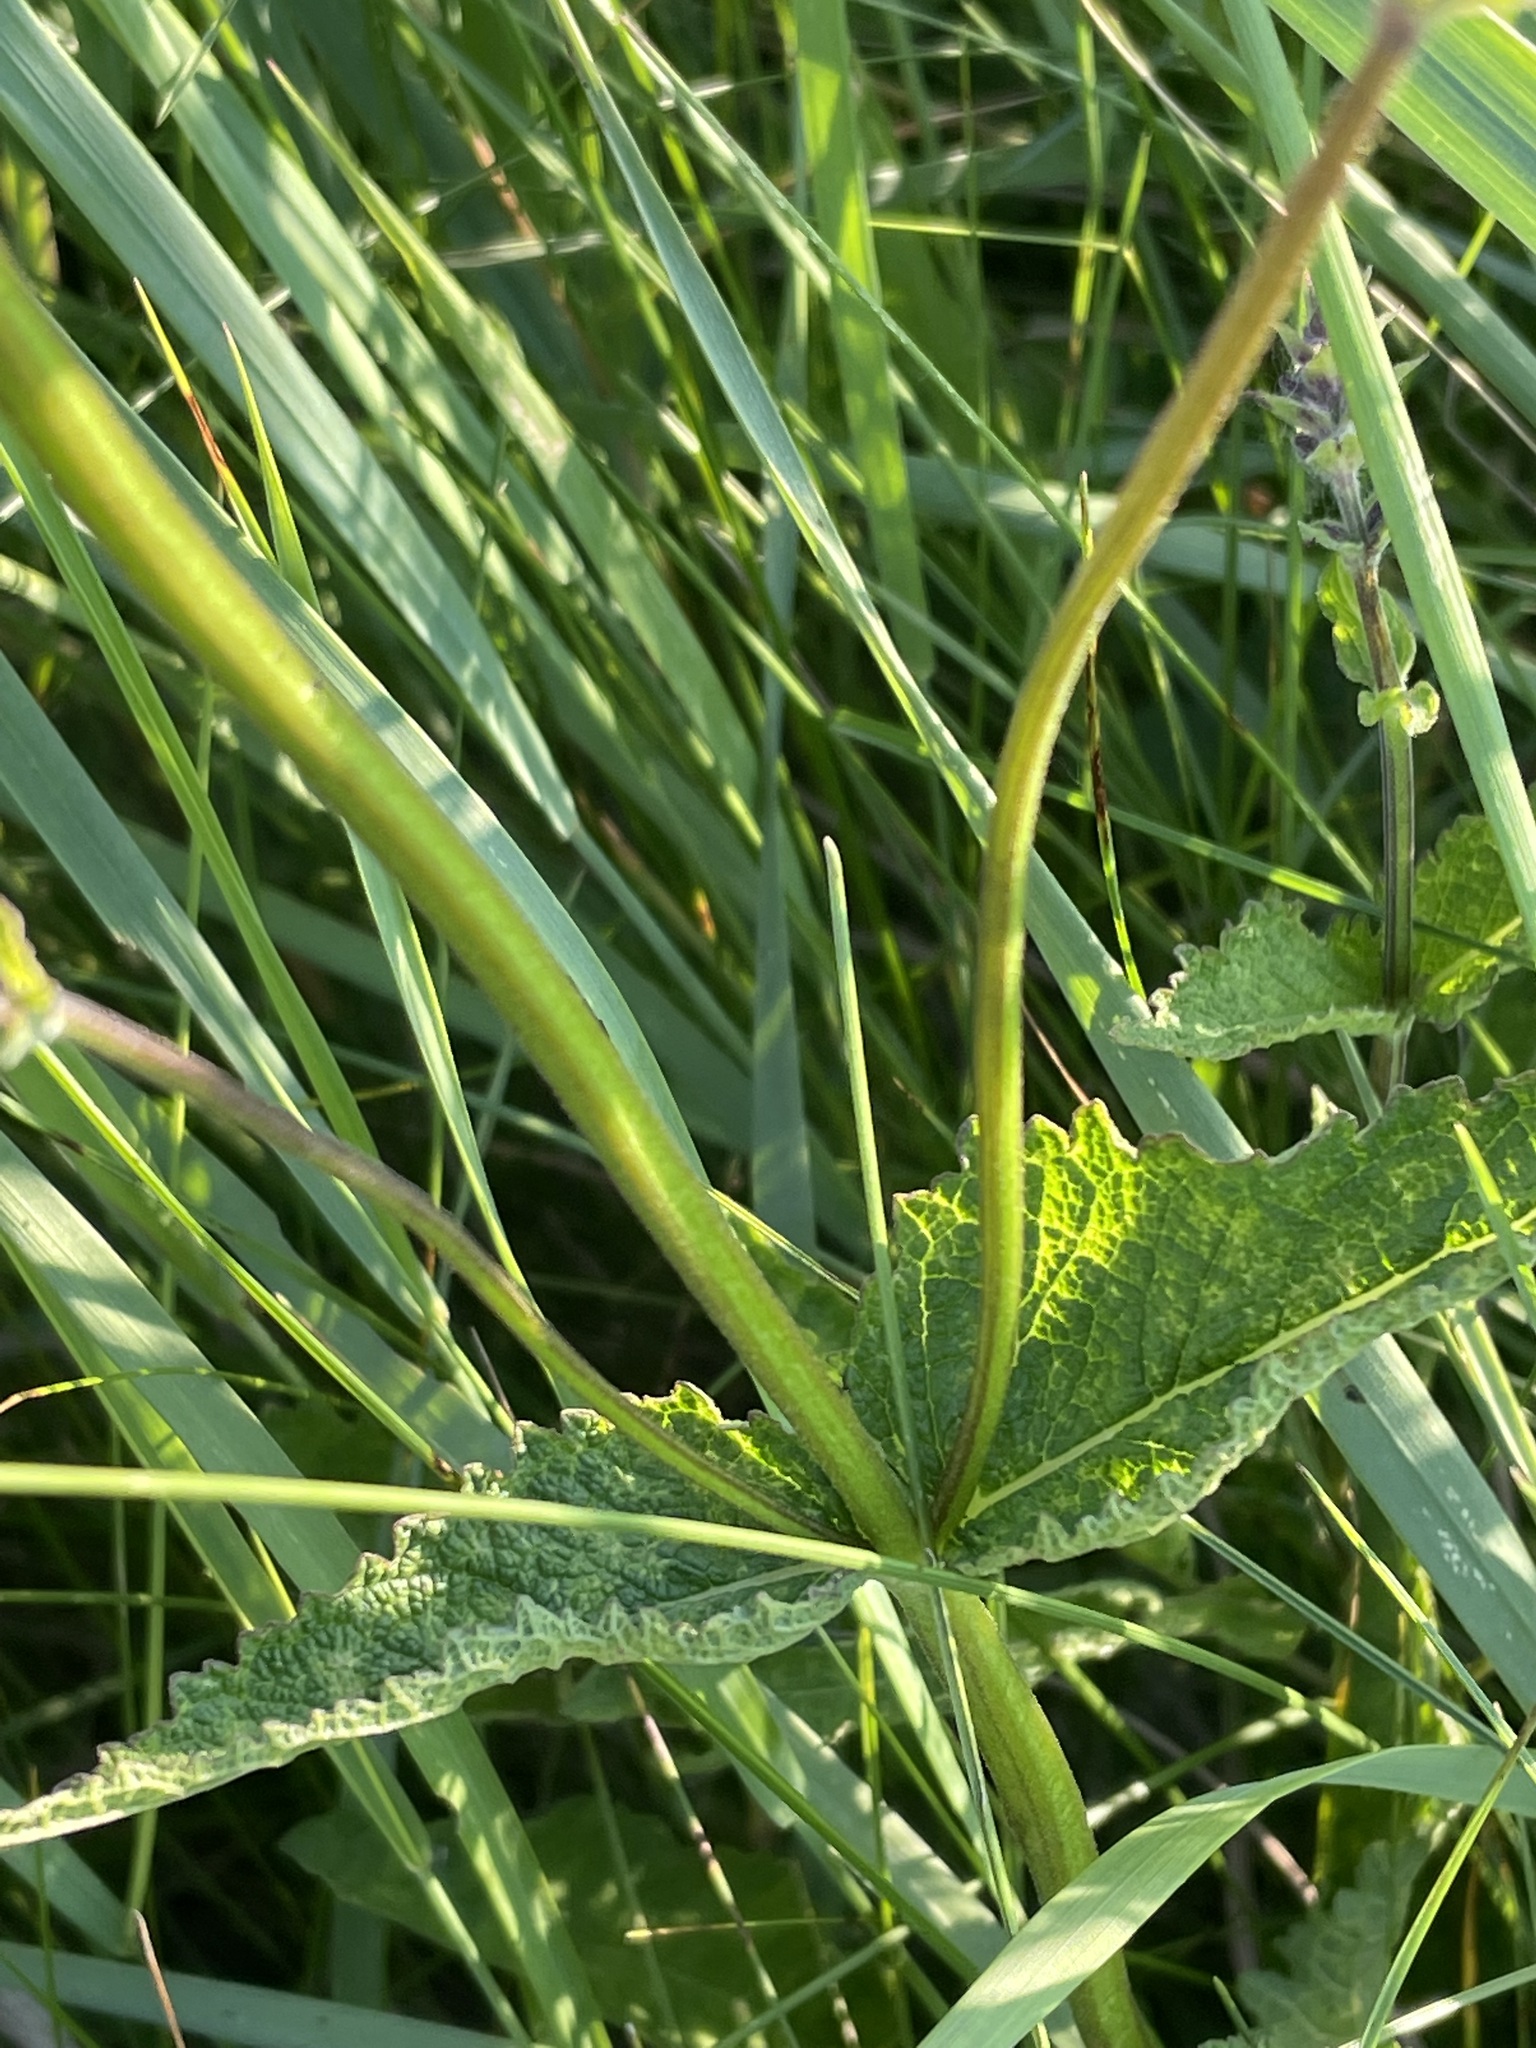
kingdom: Plantae
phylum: Tracheophyta
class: Magnoliopsida
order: Lamiales
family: Lamiaceae
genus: Salvia
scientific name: Salvia dumetorum
